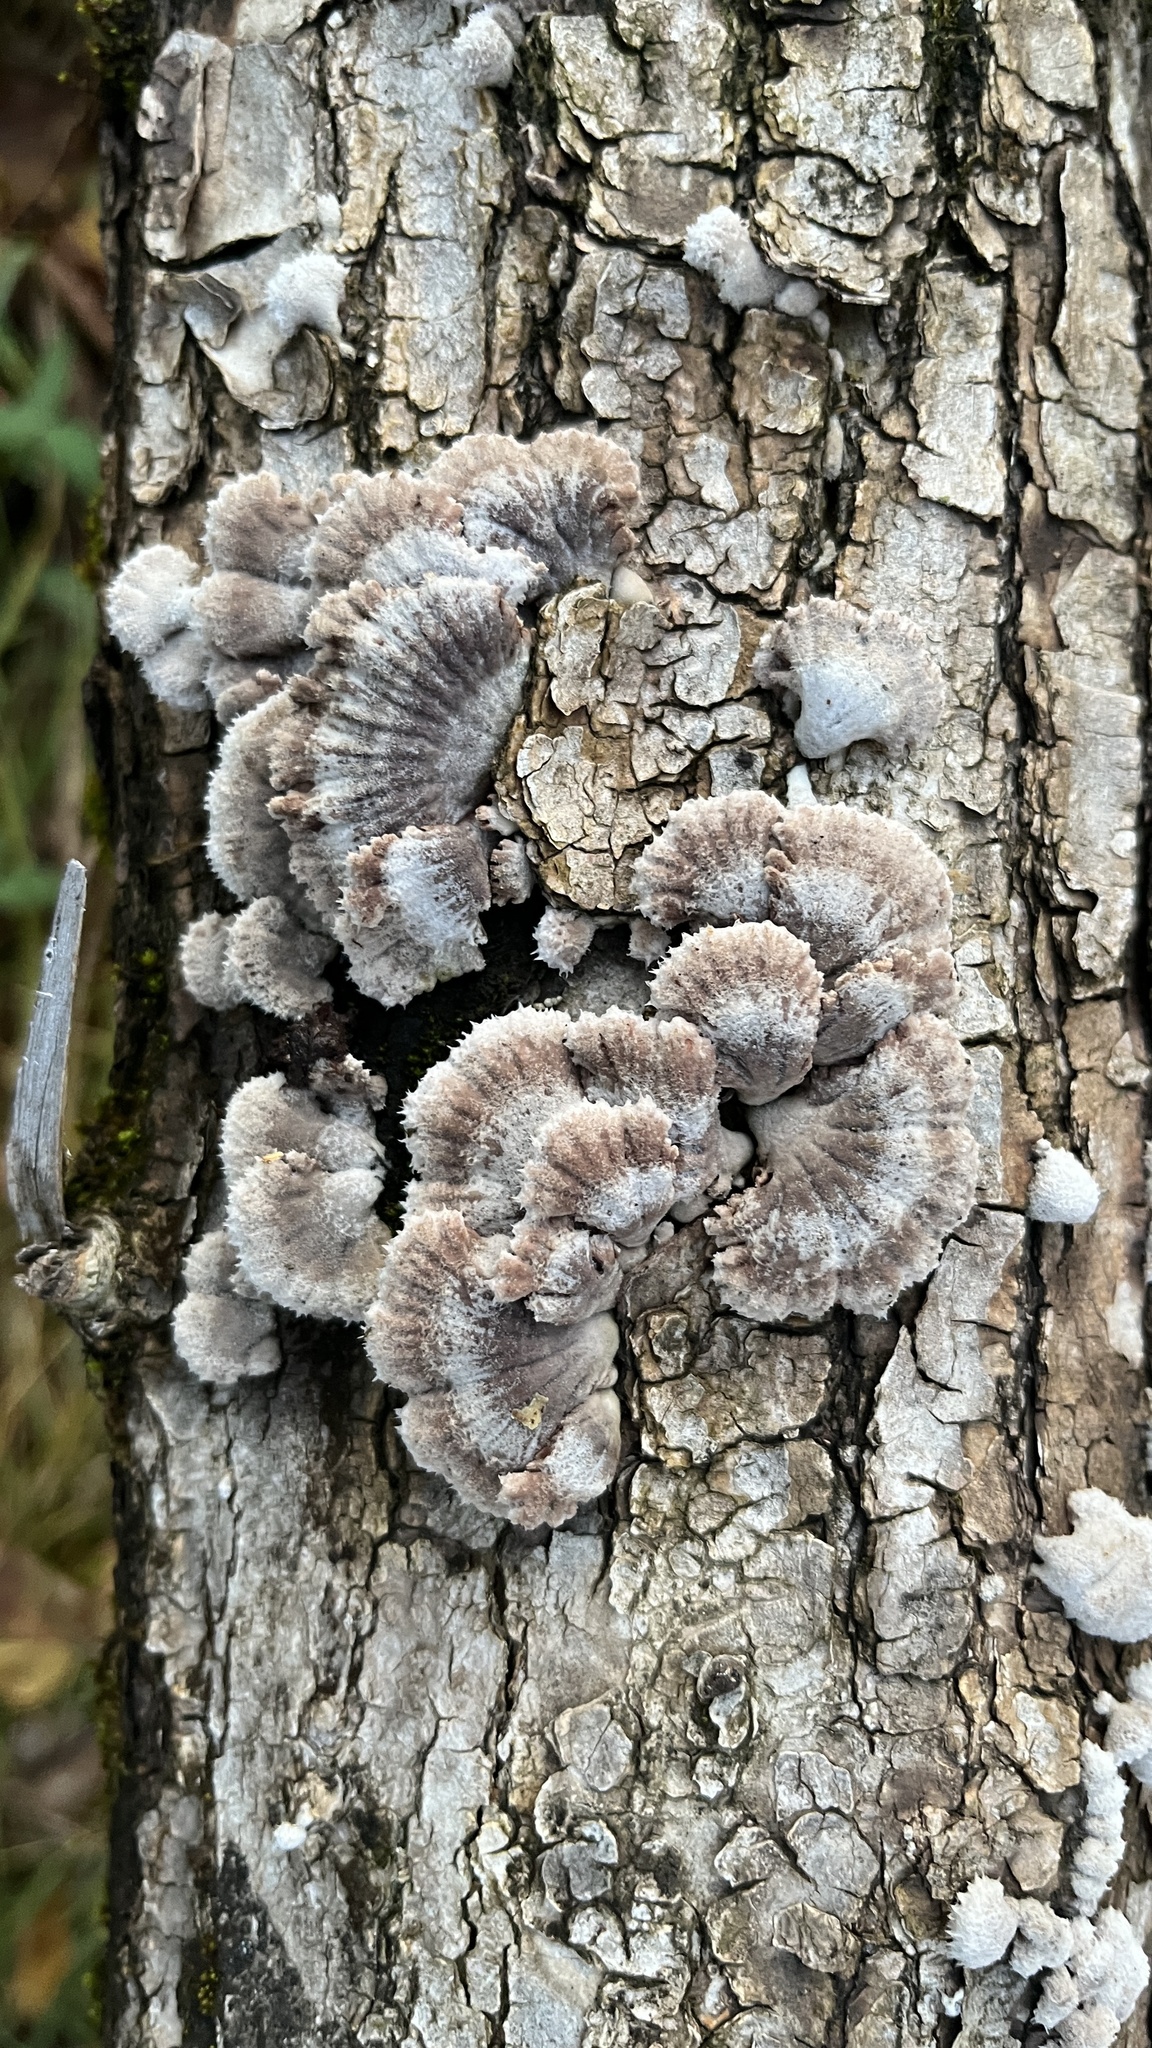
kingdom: Fungi
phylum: Basidiomycota
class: Agaricomycetes
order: Agaricales
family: Schizophyllaceae
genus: Schizophyllum
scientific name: Schizophyllum commune
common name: Common porecrust
